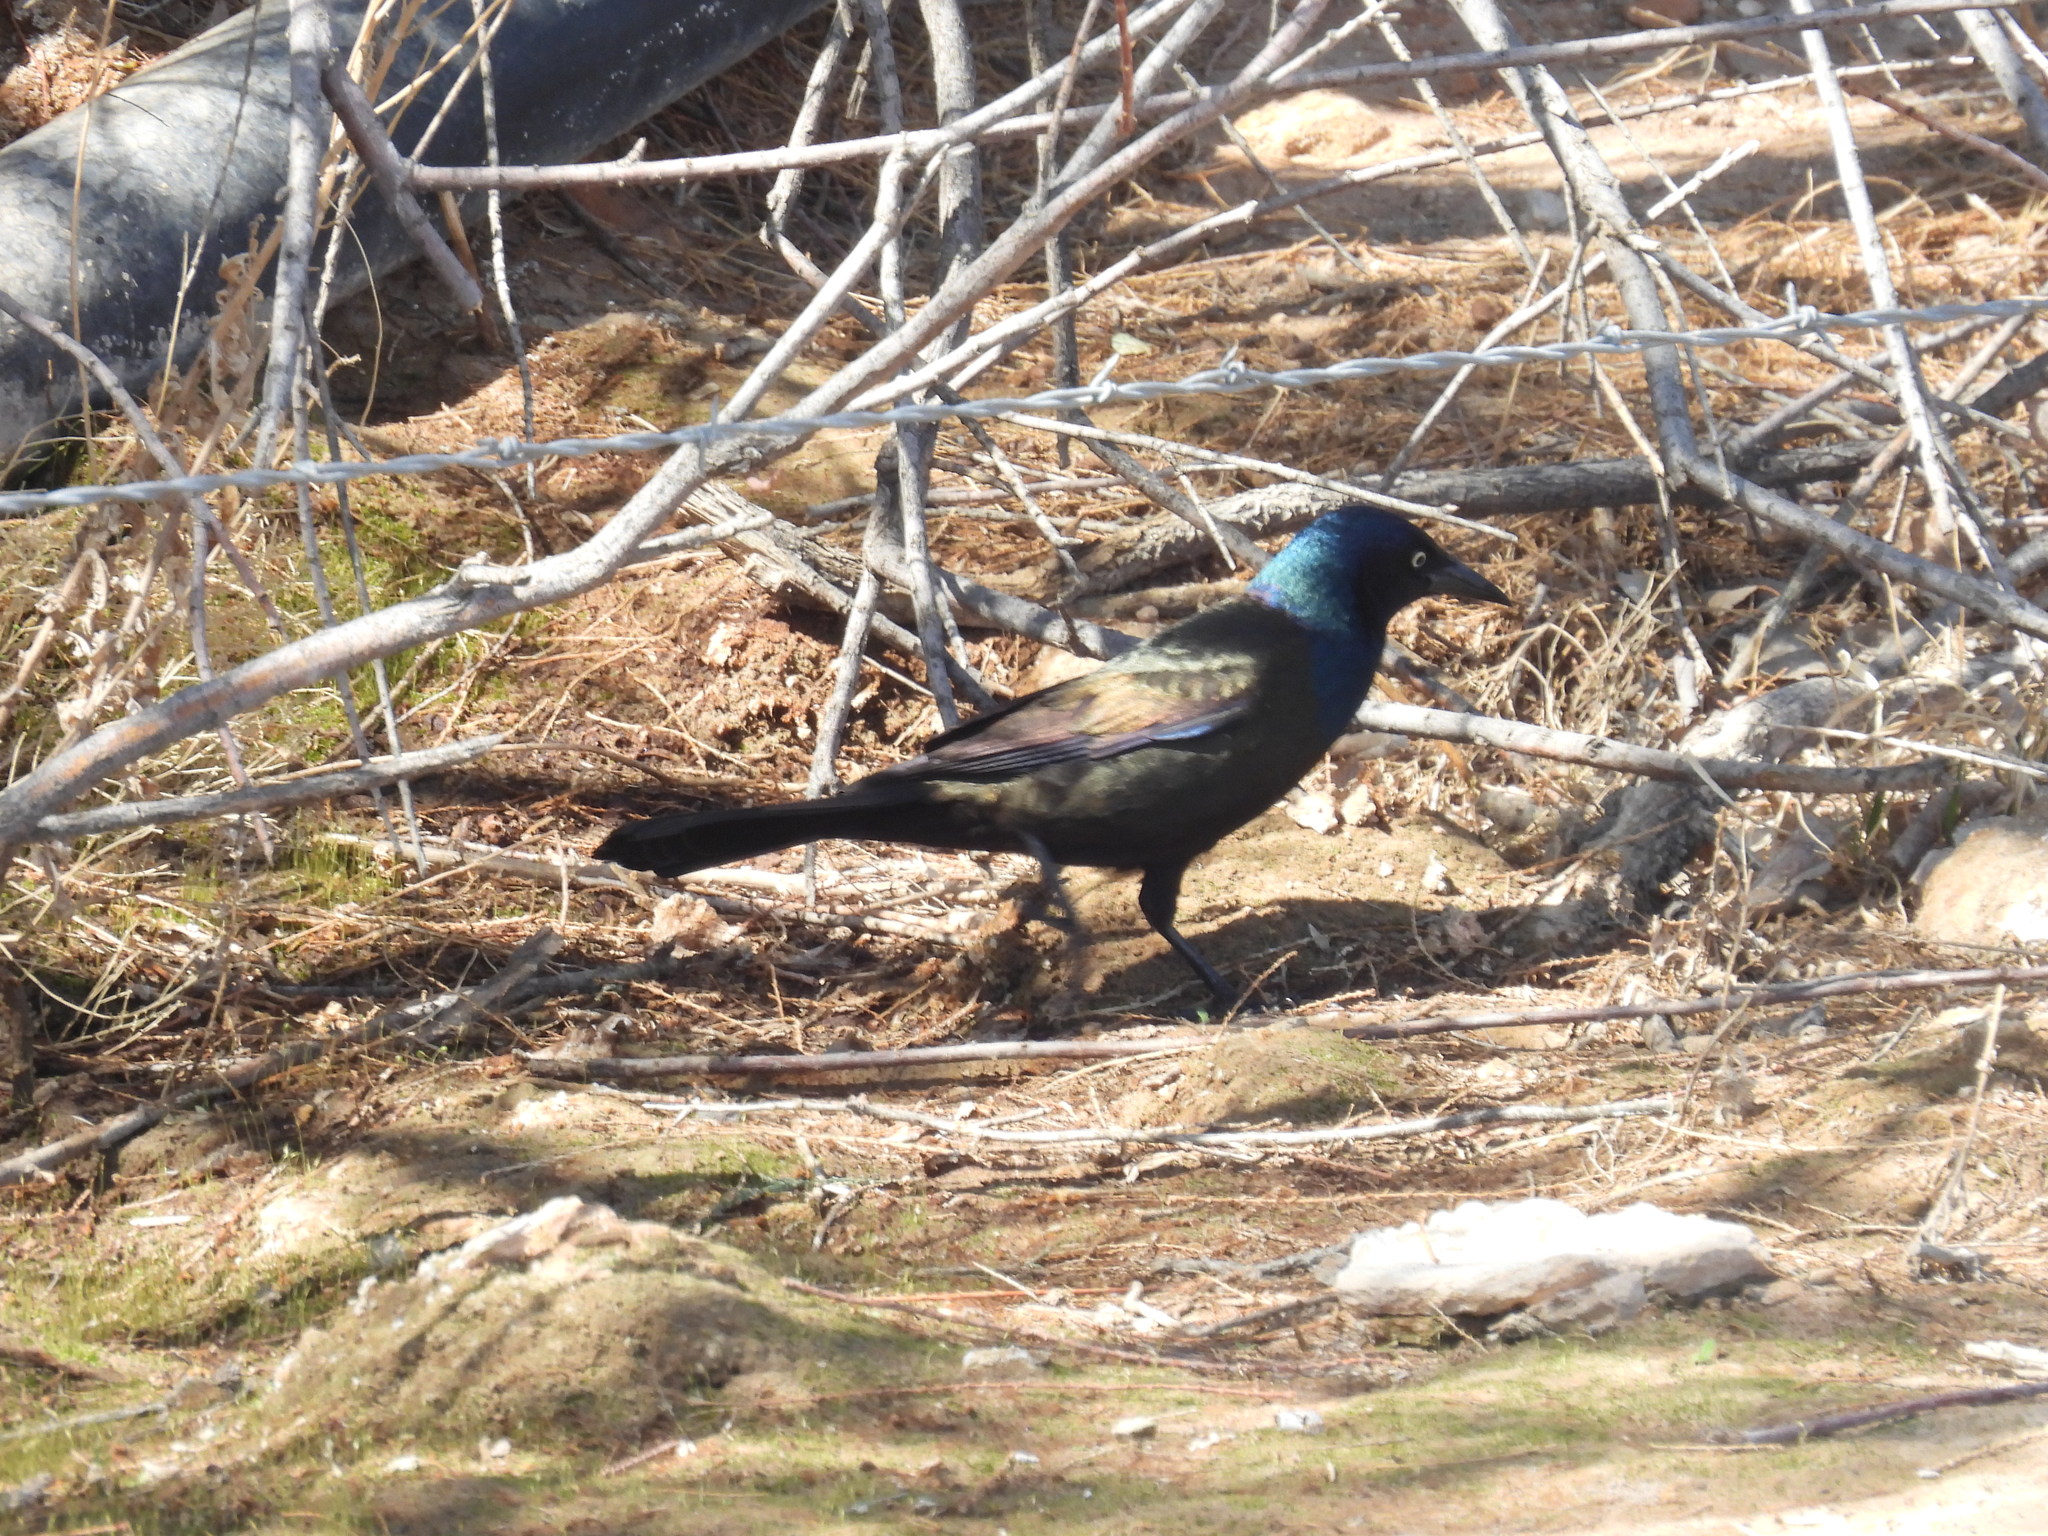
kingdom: Animalia
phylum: Chordata
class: Aves
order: Passeriformes
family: Icteridae
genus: Quiscalus
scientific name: Quiscalus quiscula
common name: Common grackle
